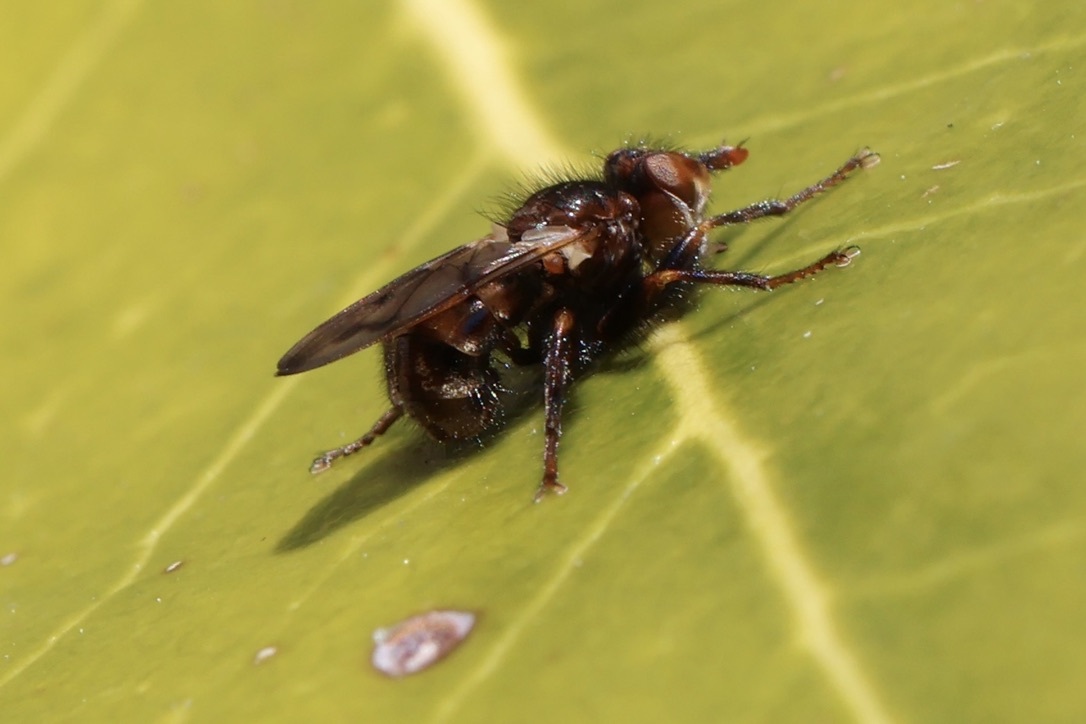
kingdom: Animalia
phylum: Arthropoda
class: Insecta
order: Diptera
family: Conopidae
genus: Myopa
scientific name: Myopa vicaria
